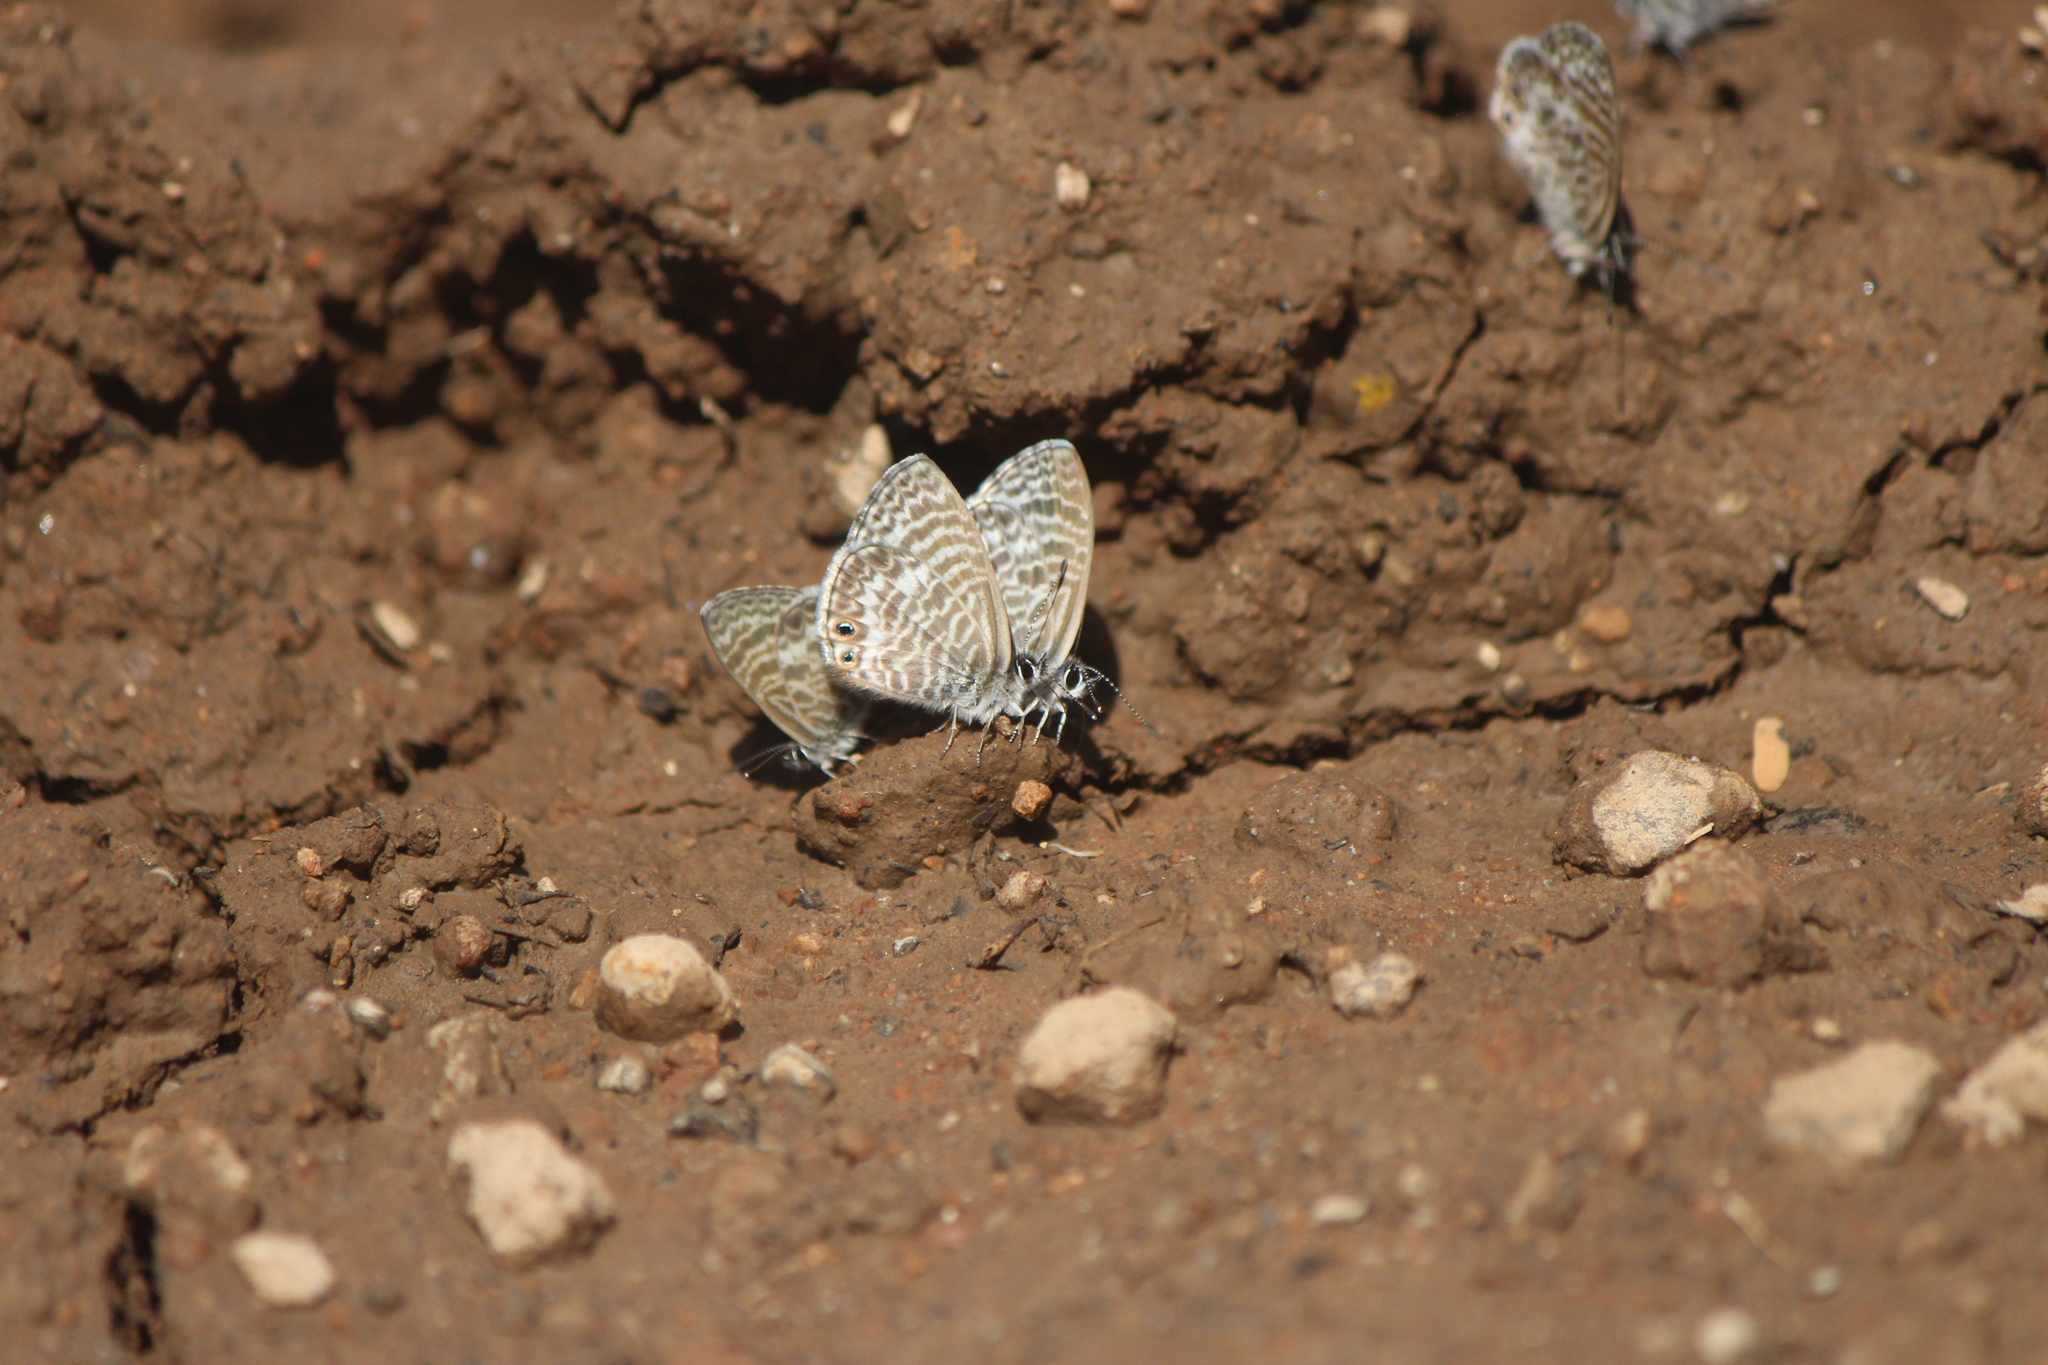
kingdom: Animalia
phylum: Arthropoda
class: Insecta
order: Lepidoptera
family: Lycaenidae
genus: Leptotes
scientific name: Leptotes marina
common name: Marine blue
